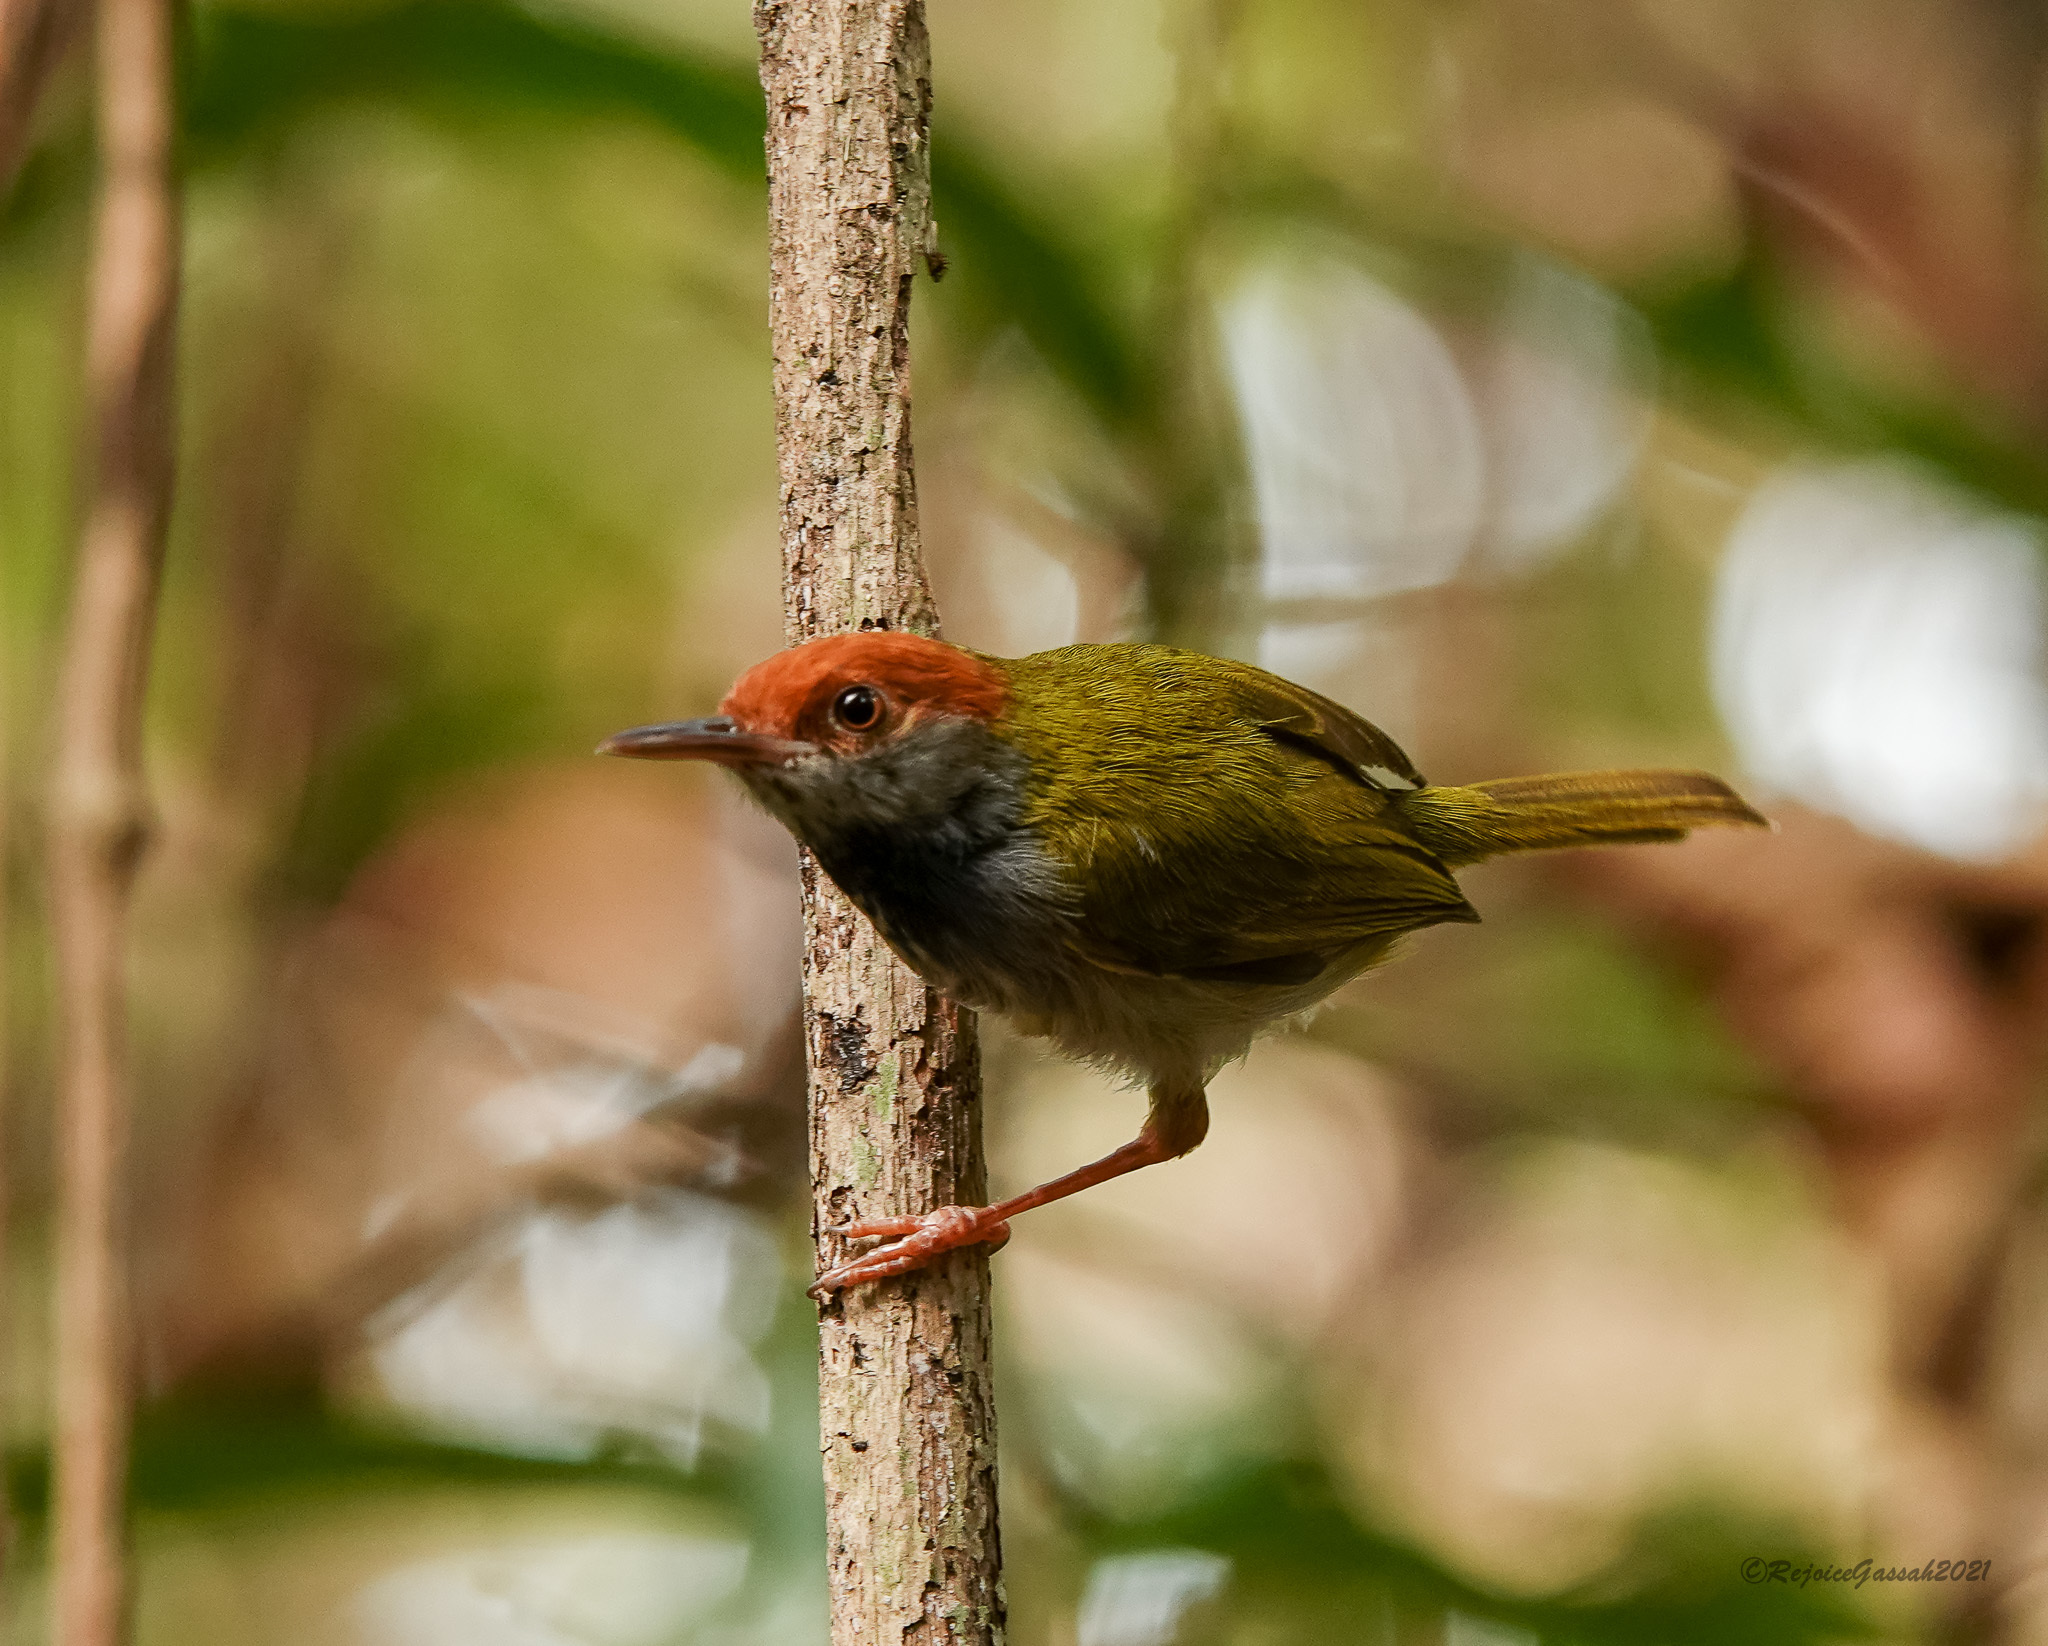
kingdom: Animalia
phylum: Chordata
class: Aves
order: Passeriformes
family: Cisticolidae
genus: Orthotomus
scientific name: Orthotomus atrogularis
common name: Dark-necked tailorbird
